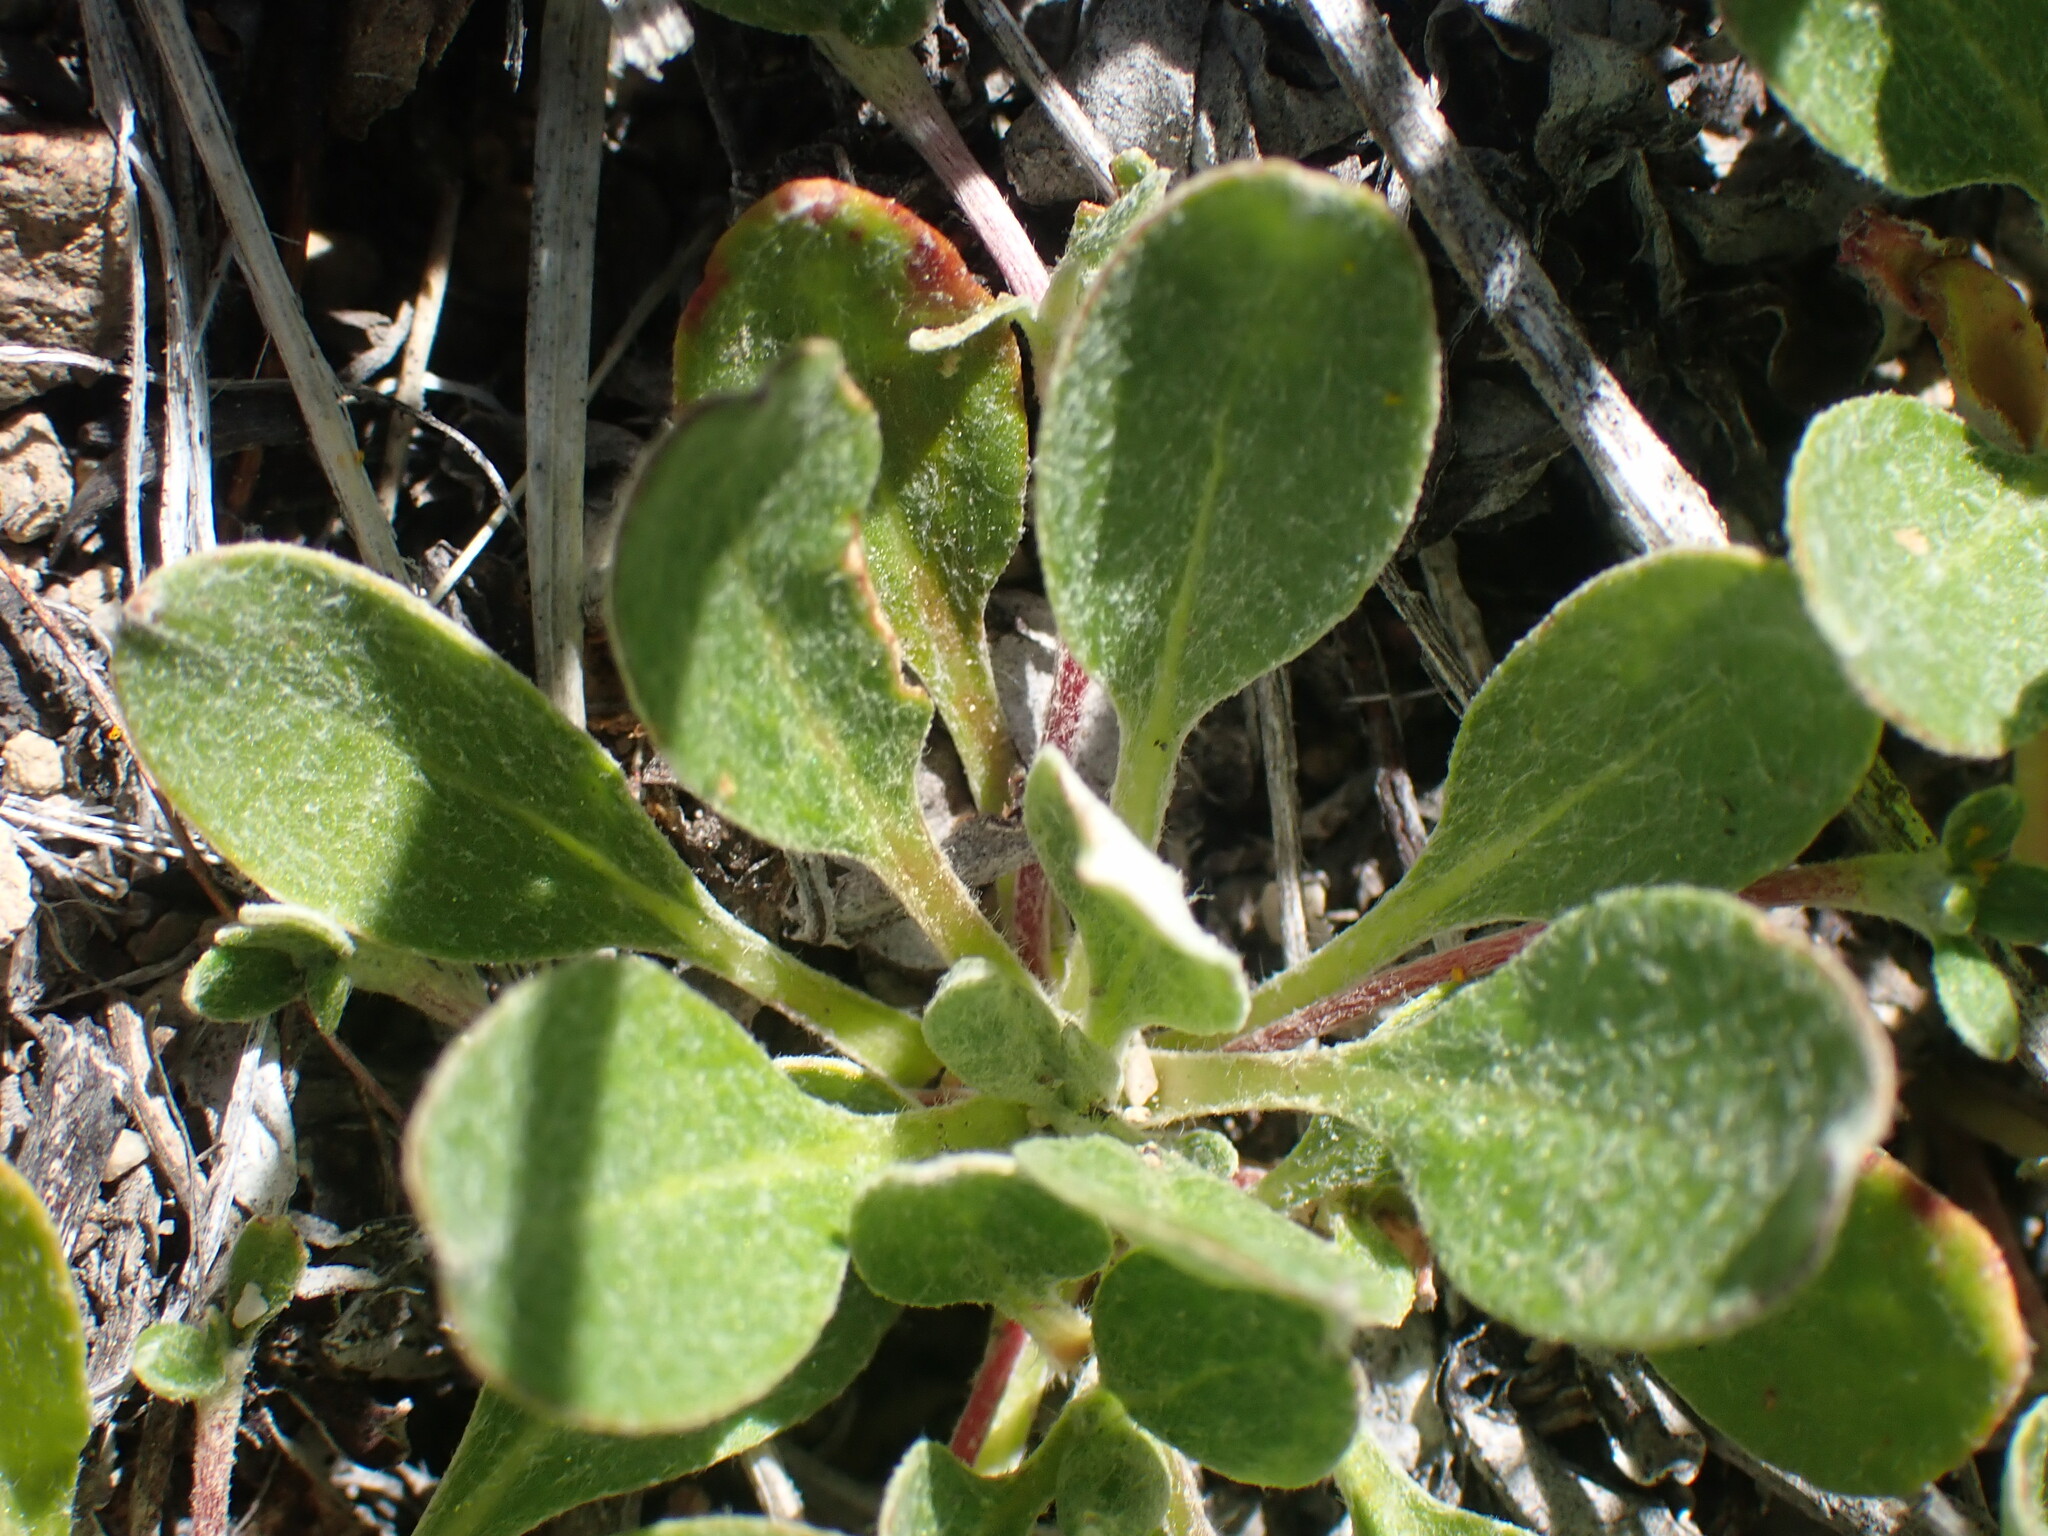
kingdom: Plantae
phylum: Tracheophyta
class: Magnoliopsida
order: Caryophyllales
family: Polygonaceae
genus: Eriogonum
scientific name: Eriogonum umbellatum
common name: Sulfur-buckwheat
